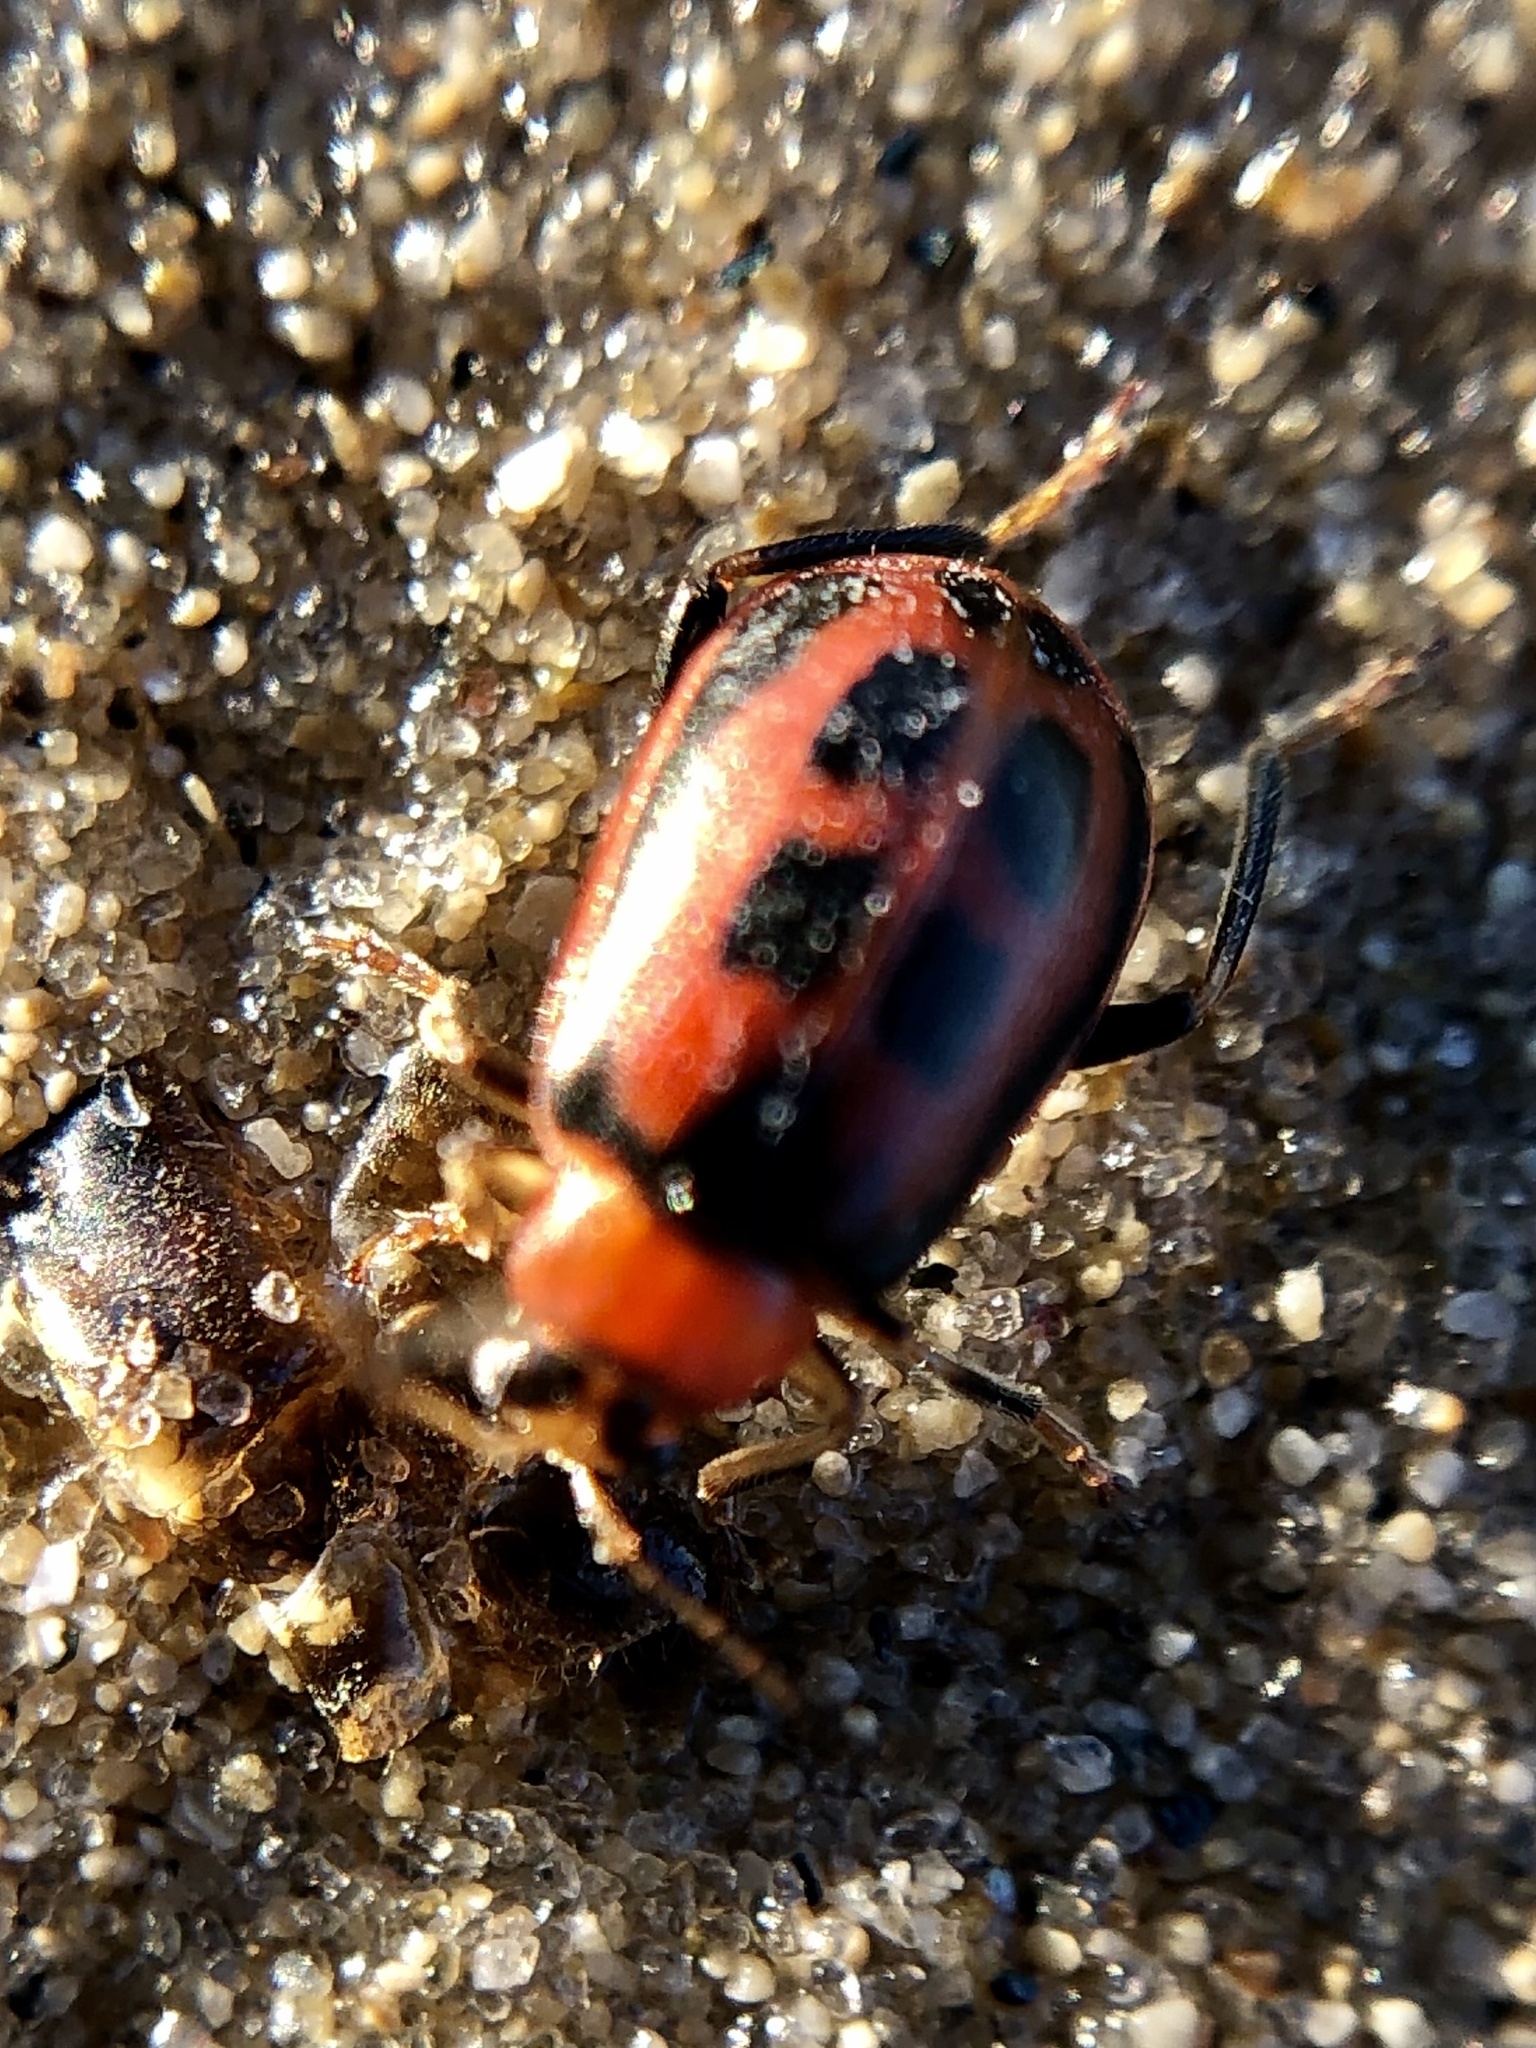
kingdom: Animalia
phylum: Arthropoda
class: Insecta
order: Coleoptera
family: Chrysomelidae
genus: Cerotoma
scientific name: Cerotoma trifurcata
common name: Bean leaf beetle
